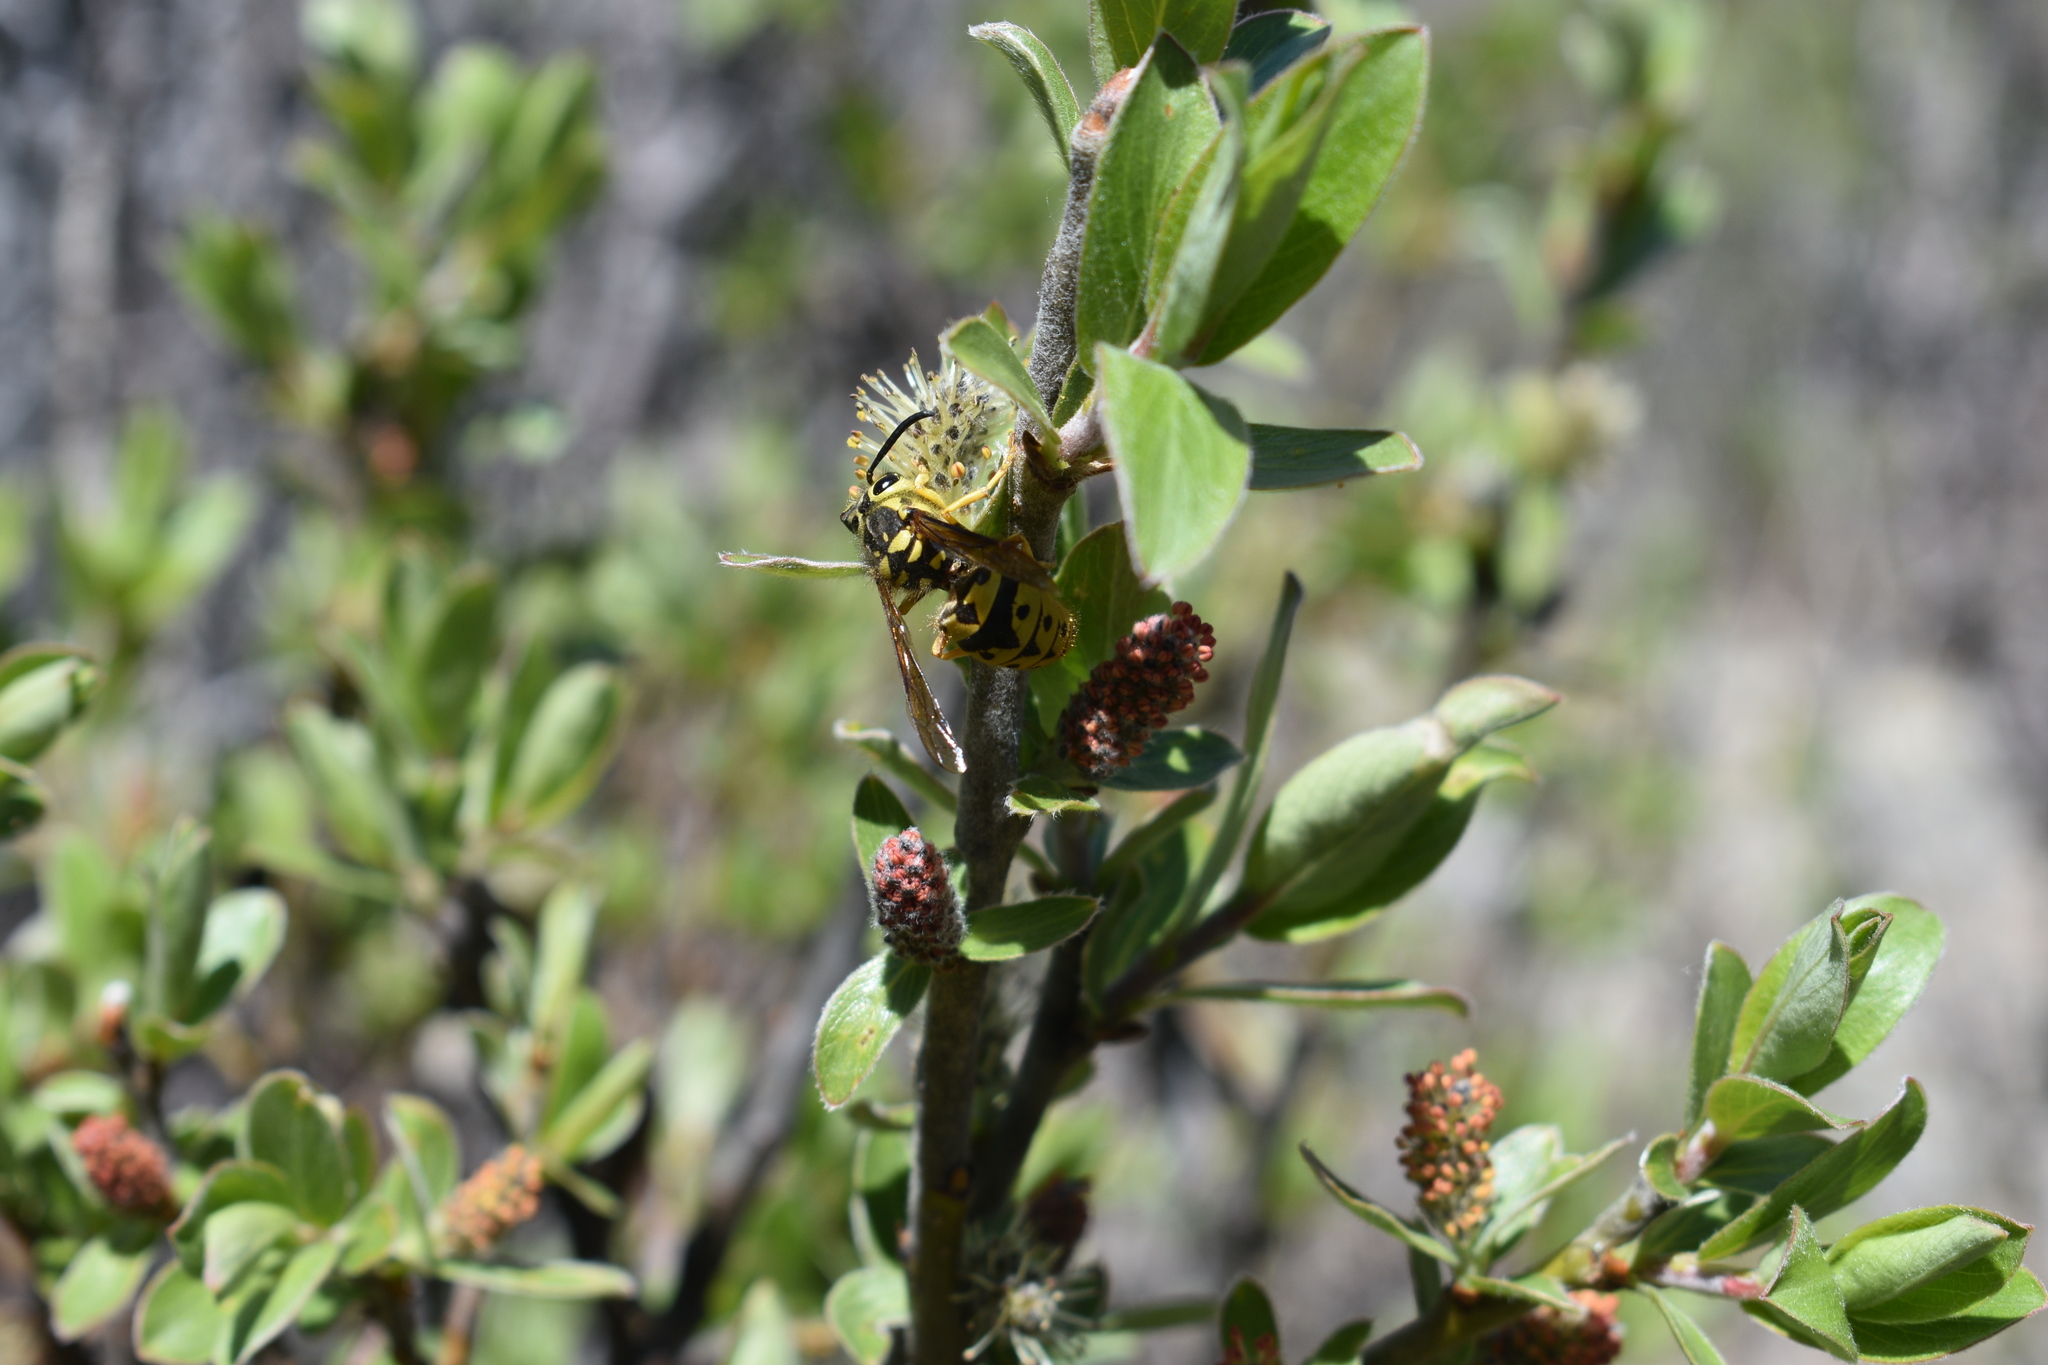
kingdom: Animalia
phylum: Arthropoda
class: Insecta
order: Hymenoptera
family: Vespidae
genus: Vespula
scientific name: Vespula pensylvanica
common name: Western yellowjacket
